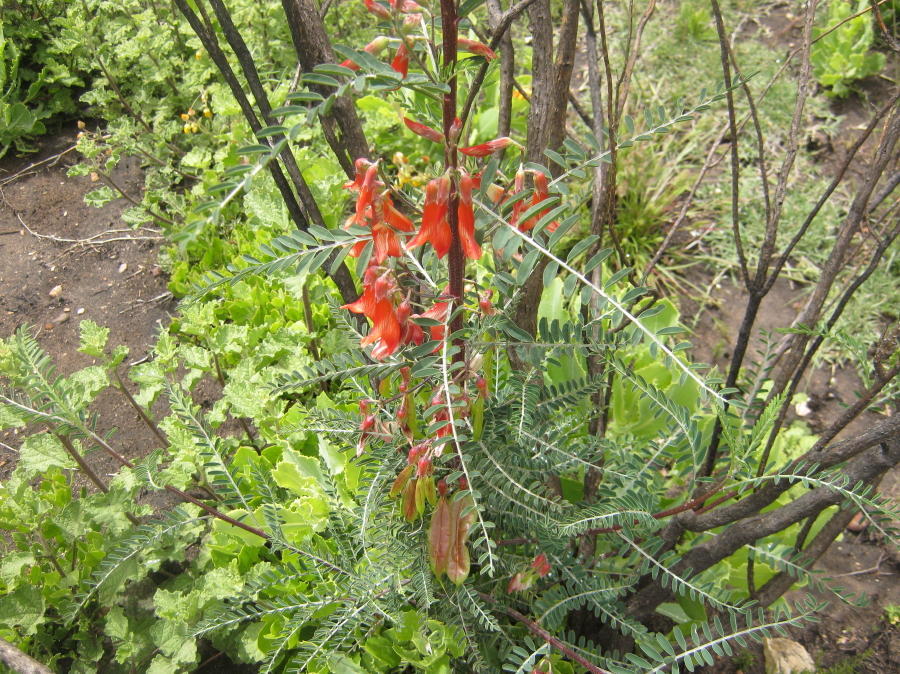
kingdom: Plantae
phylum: Tracheophyta
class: Magnoliopsida
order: Fabales
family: Fabaceae
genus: Lessertia
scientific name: Lessertia frutescens
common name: Balloon-pea
